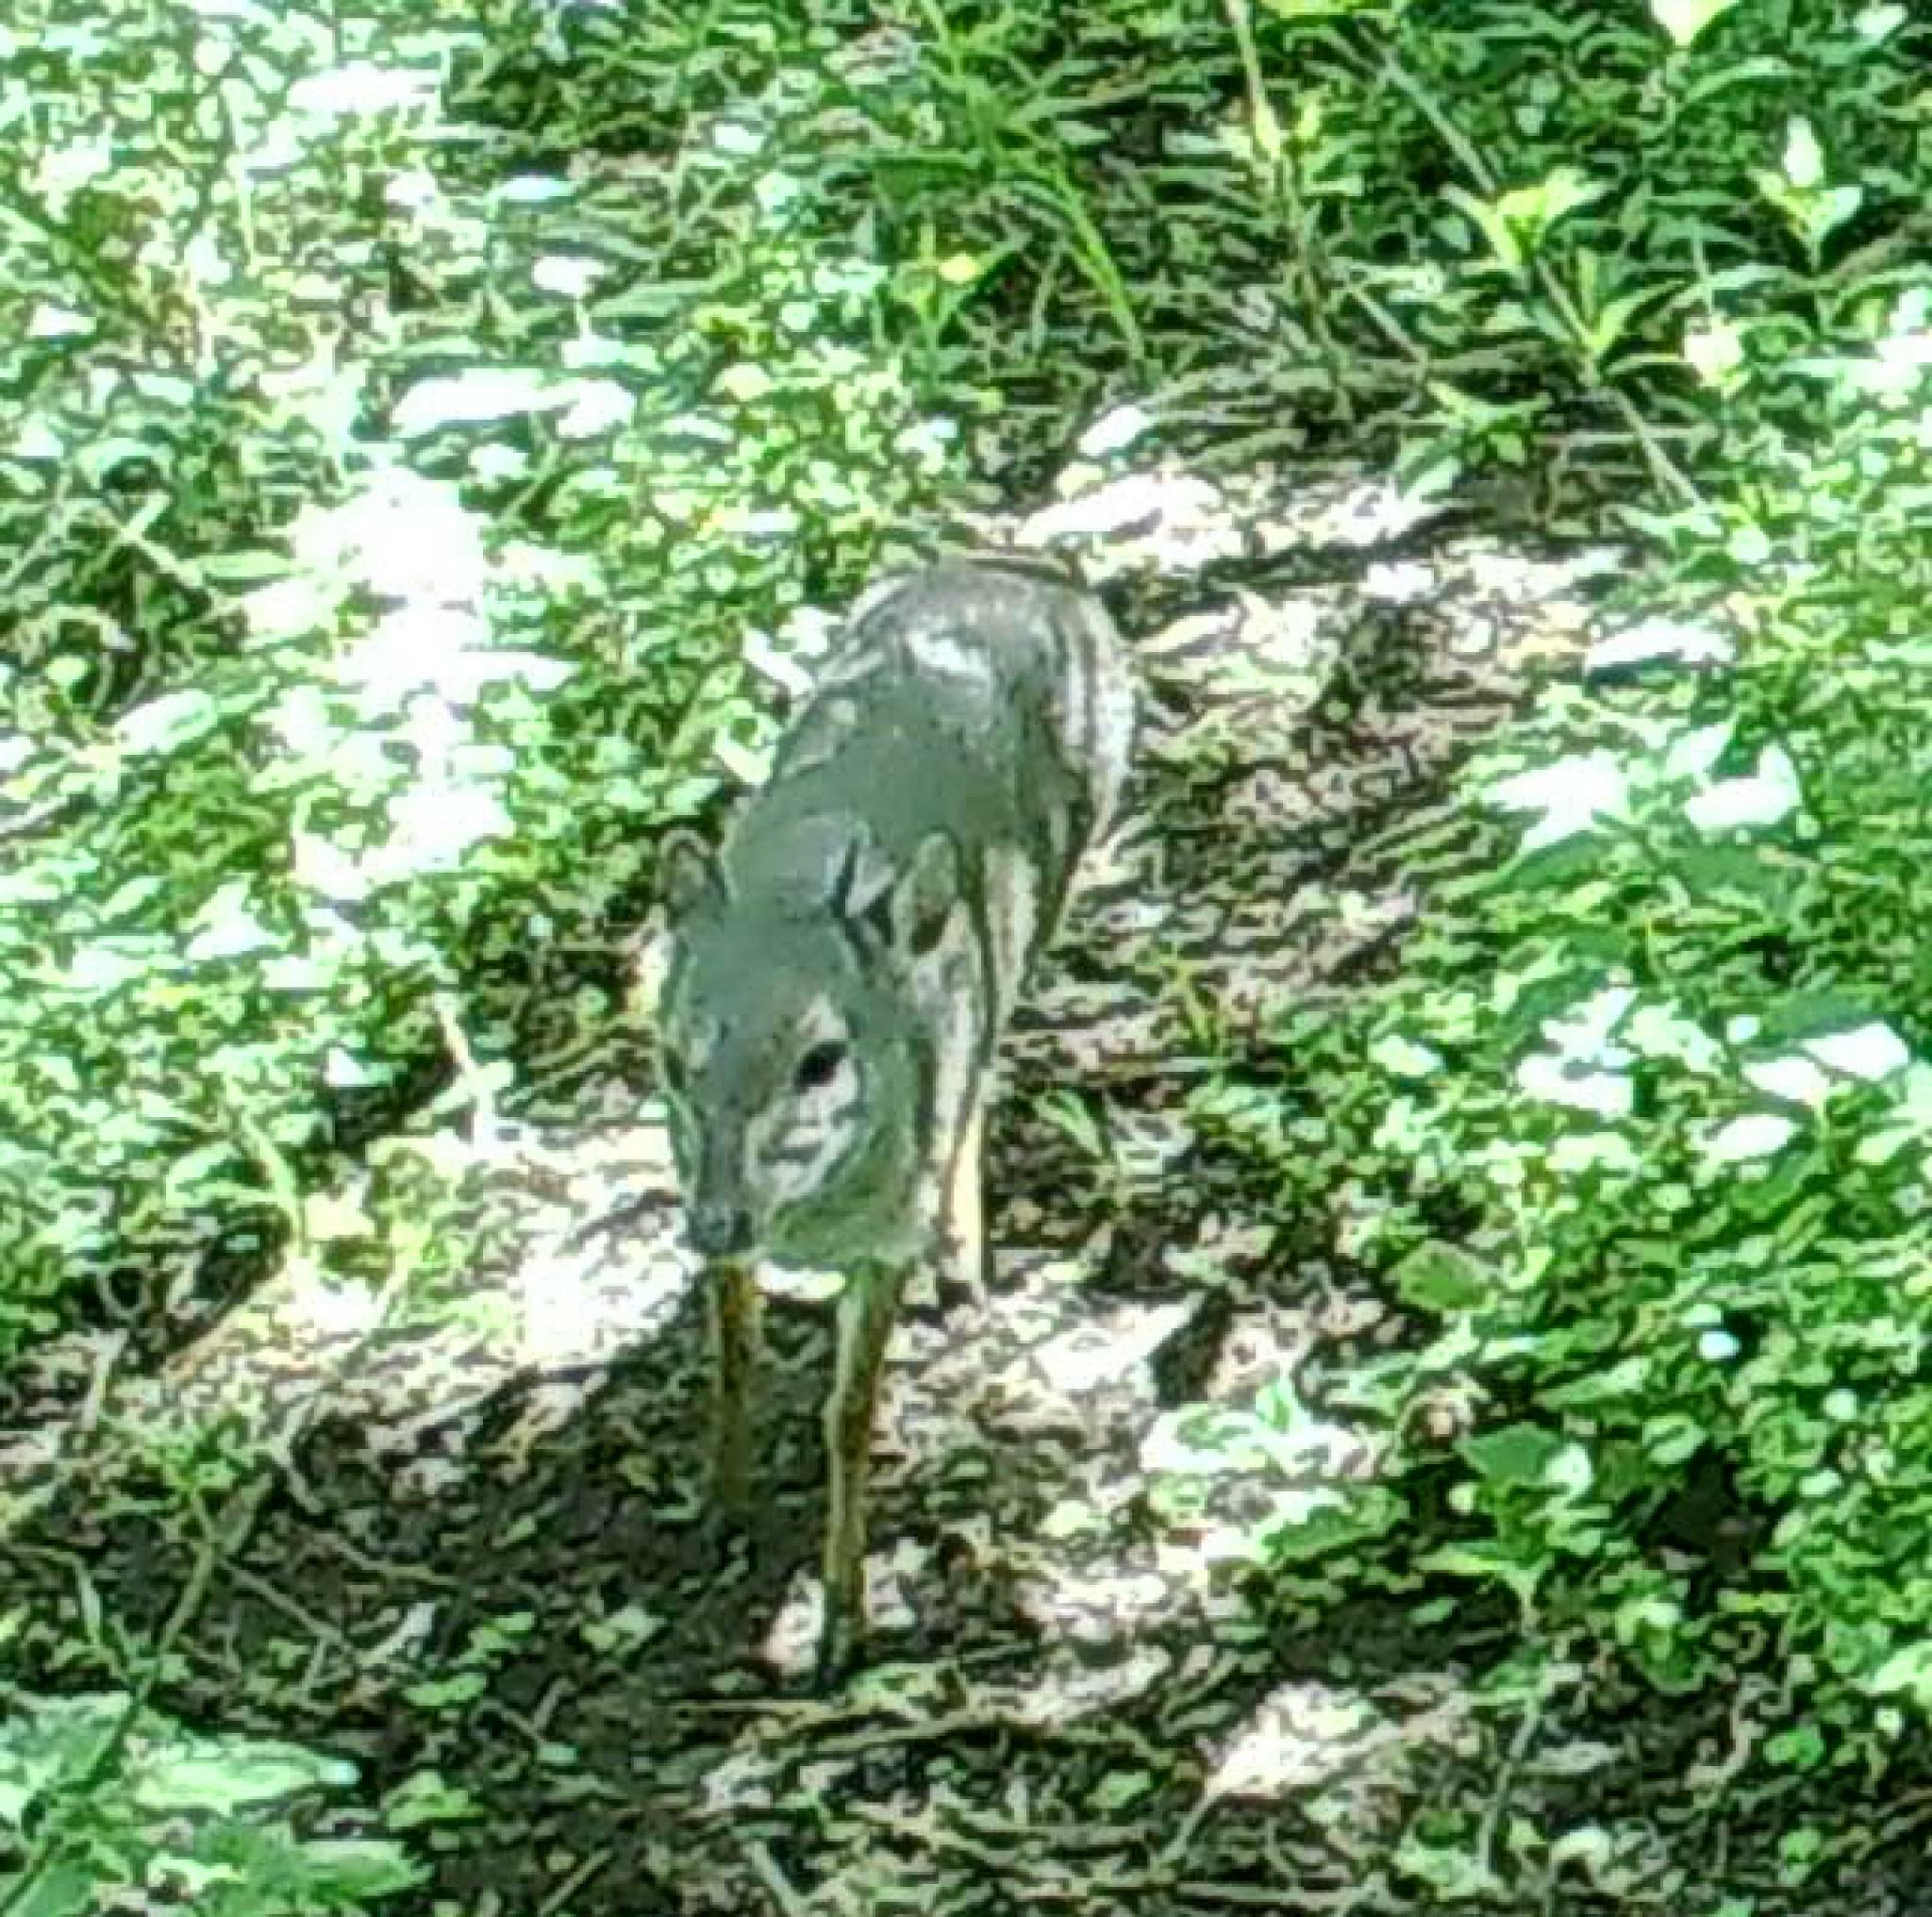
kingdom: Animalia
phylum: Chordata
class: Mammalia
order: Artiodactyla
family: Bovidae
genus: Philantomba
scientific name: Philantomba monticola
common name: Blue duiker
